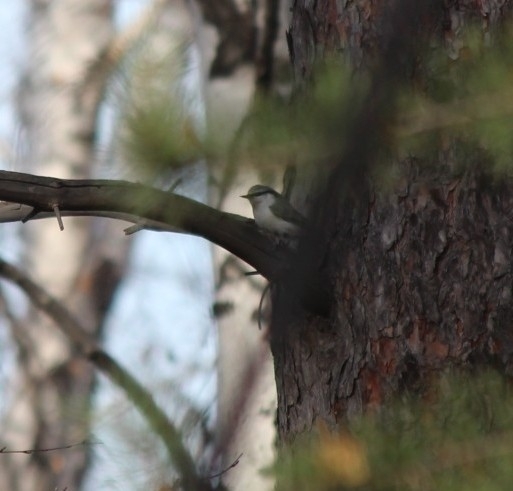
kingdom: Animalia
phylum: Chordata
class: Aves
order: Passeriformes
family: Sittidae
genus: Sitta
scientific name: Sitta europaea
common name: Eurasian nuthatch
